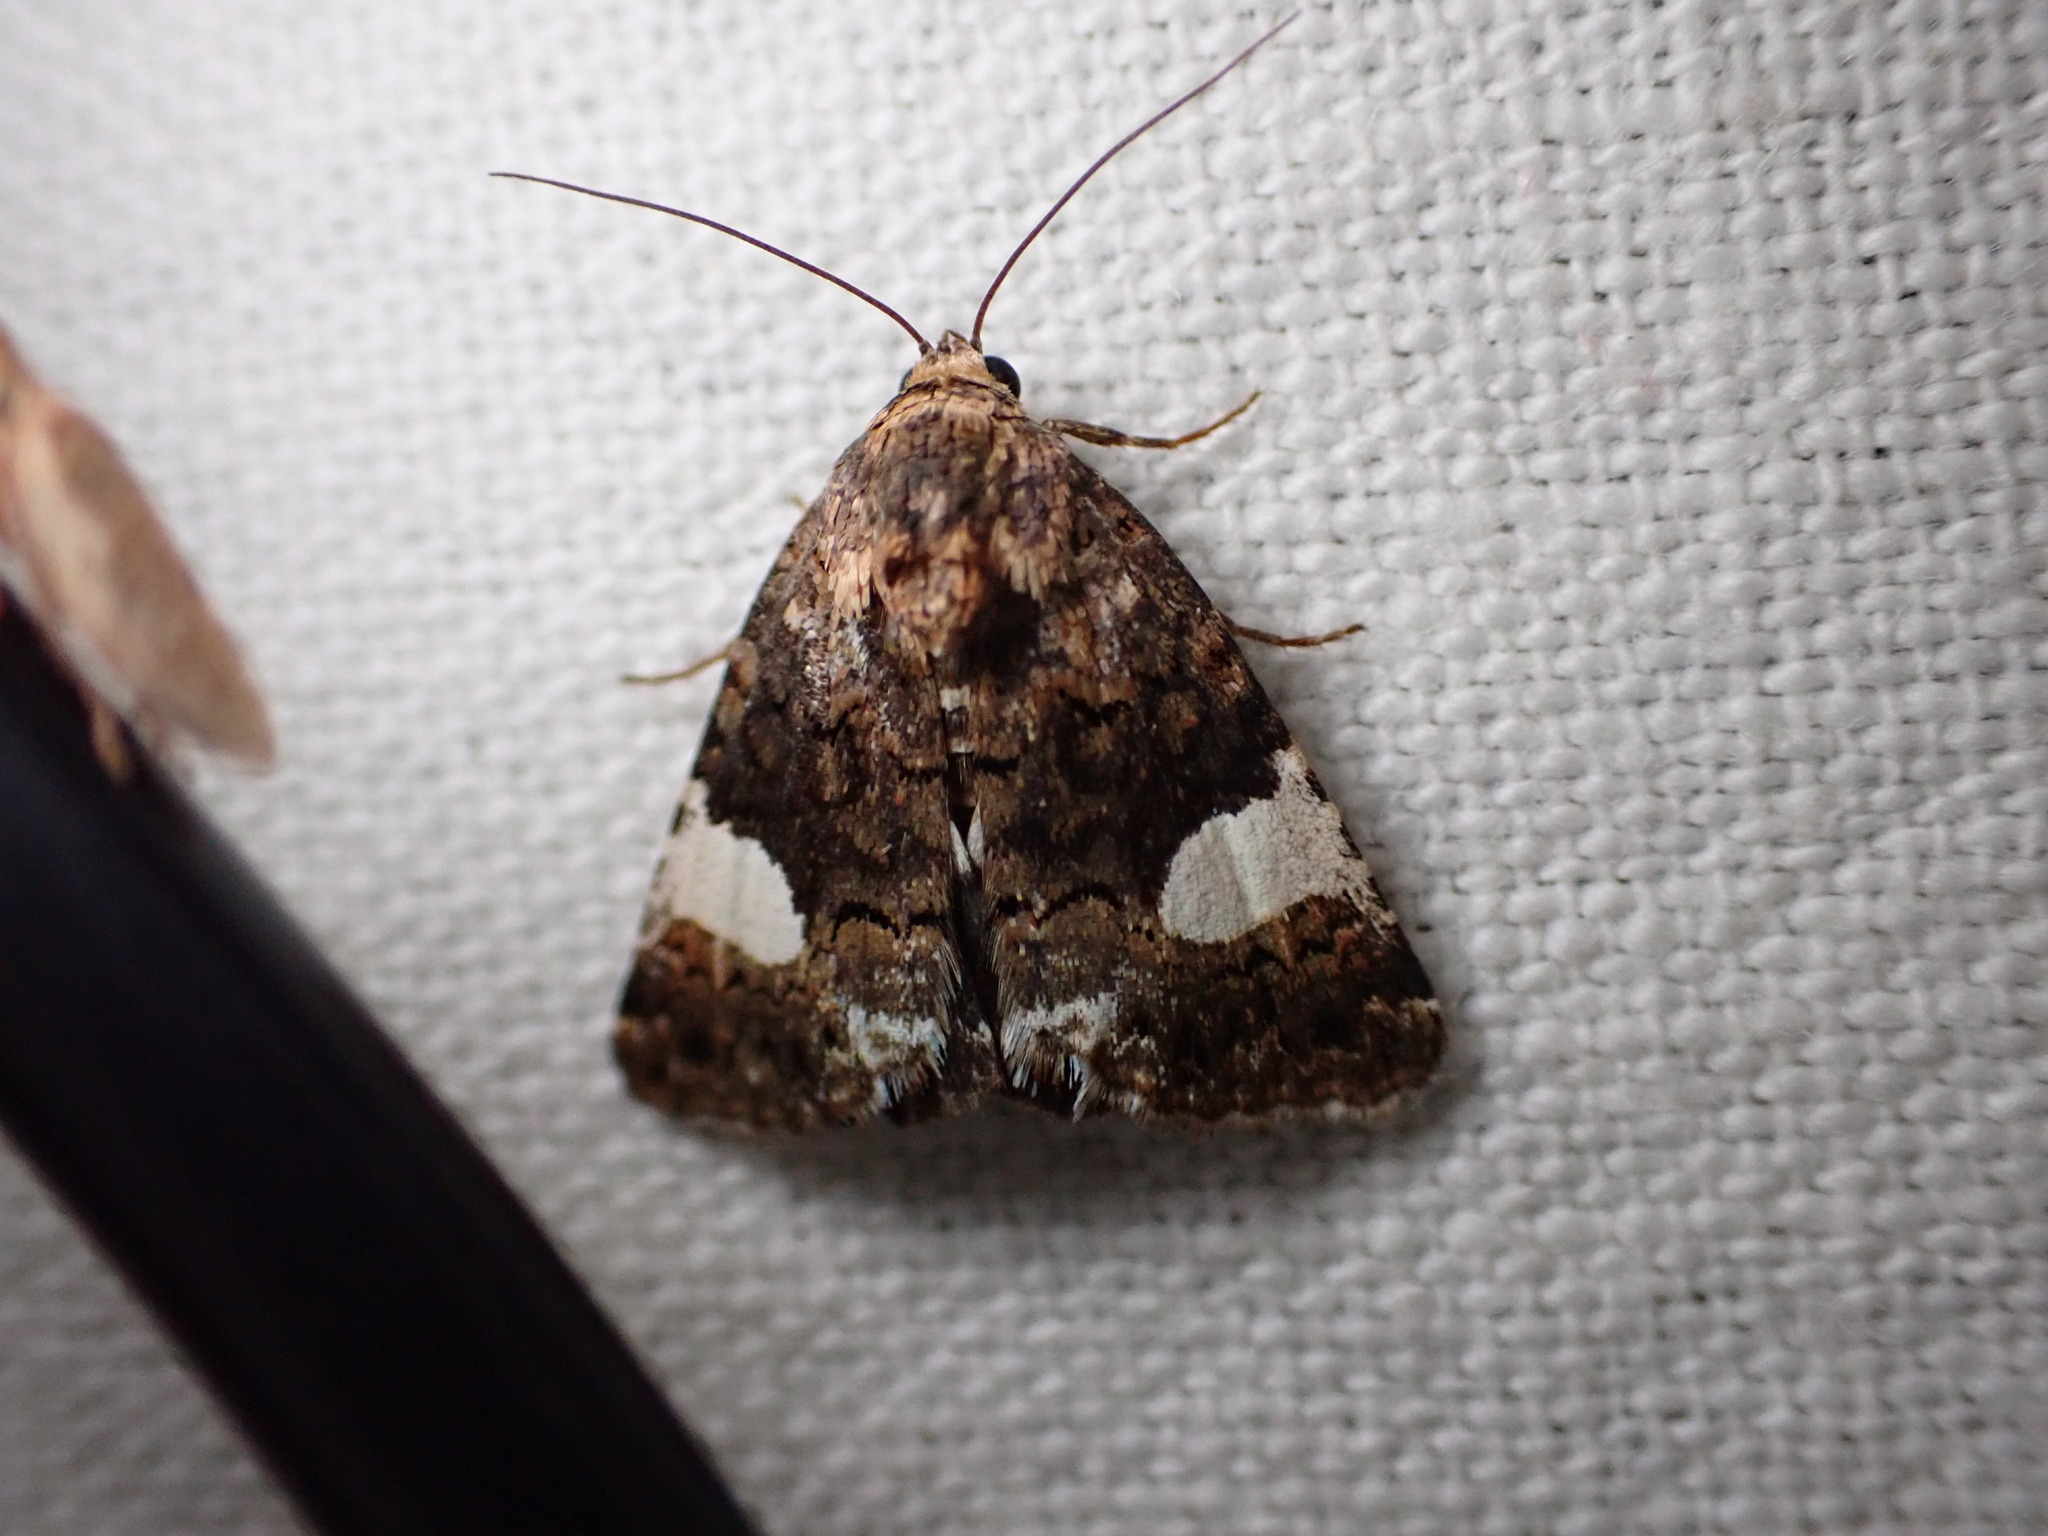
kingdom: Animalia
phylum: Arthropoda
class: Insecta
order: Lepidoptera
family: Erebidae
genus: Tyta
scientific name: Tyta luctuosa
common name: Four-spotted
